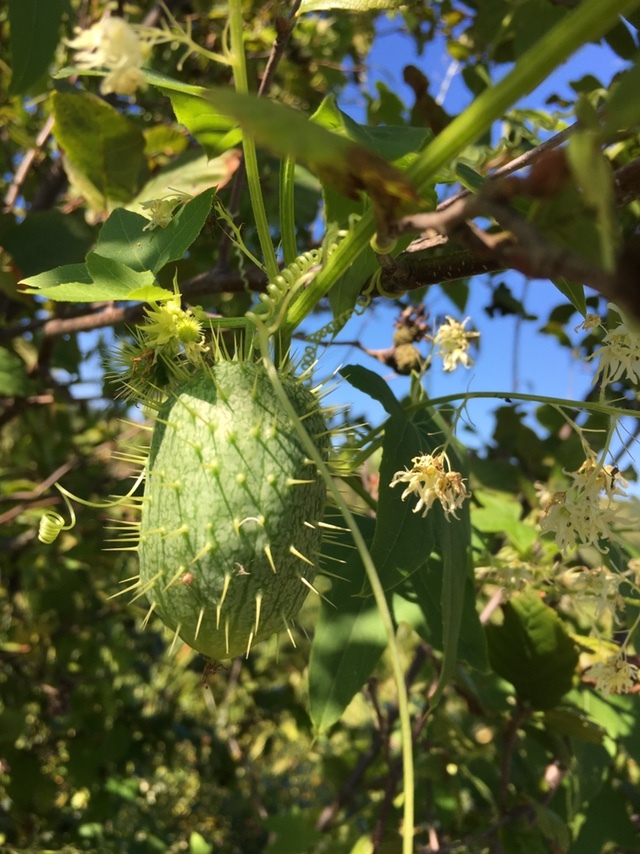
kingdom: Plantae
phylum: Tracheophyta
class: Magnoliopsida
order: Cucurbitales
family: Cucurbitaceae
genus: Echinocystis
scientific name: Echinocystis lobata
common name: Wild cucumber
